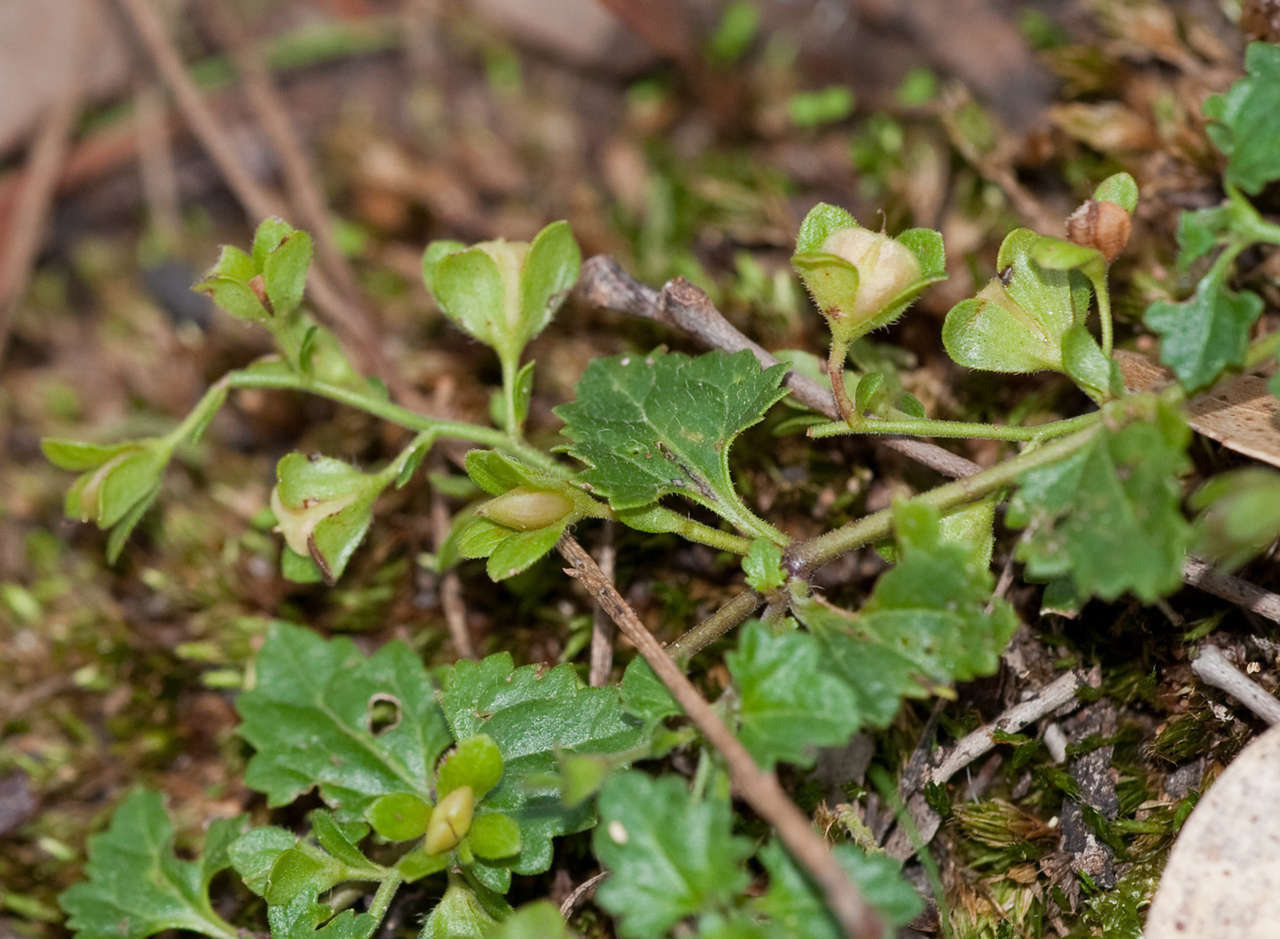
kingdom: Plantae
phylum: Tracheophyta
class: Magnoliopsida
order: Lamiales
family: Plantaginaceae
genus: Veronica
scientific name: Veronica plebeia
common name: Speedwell
